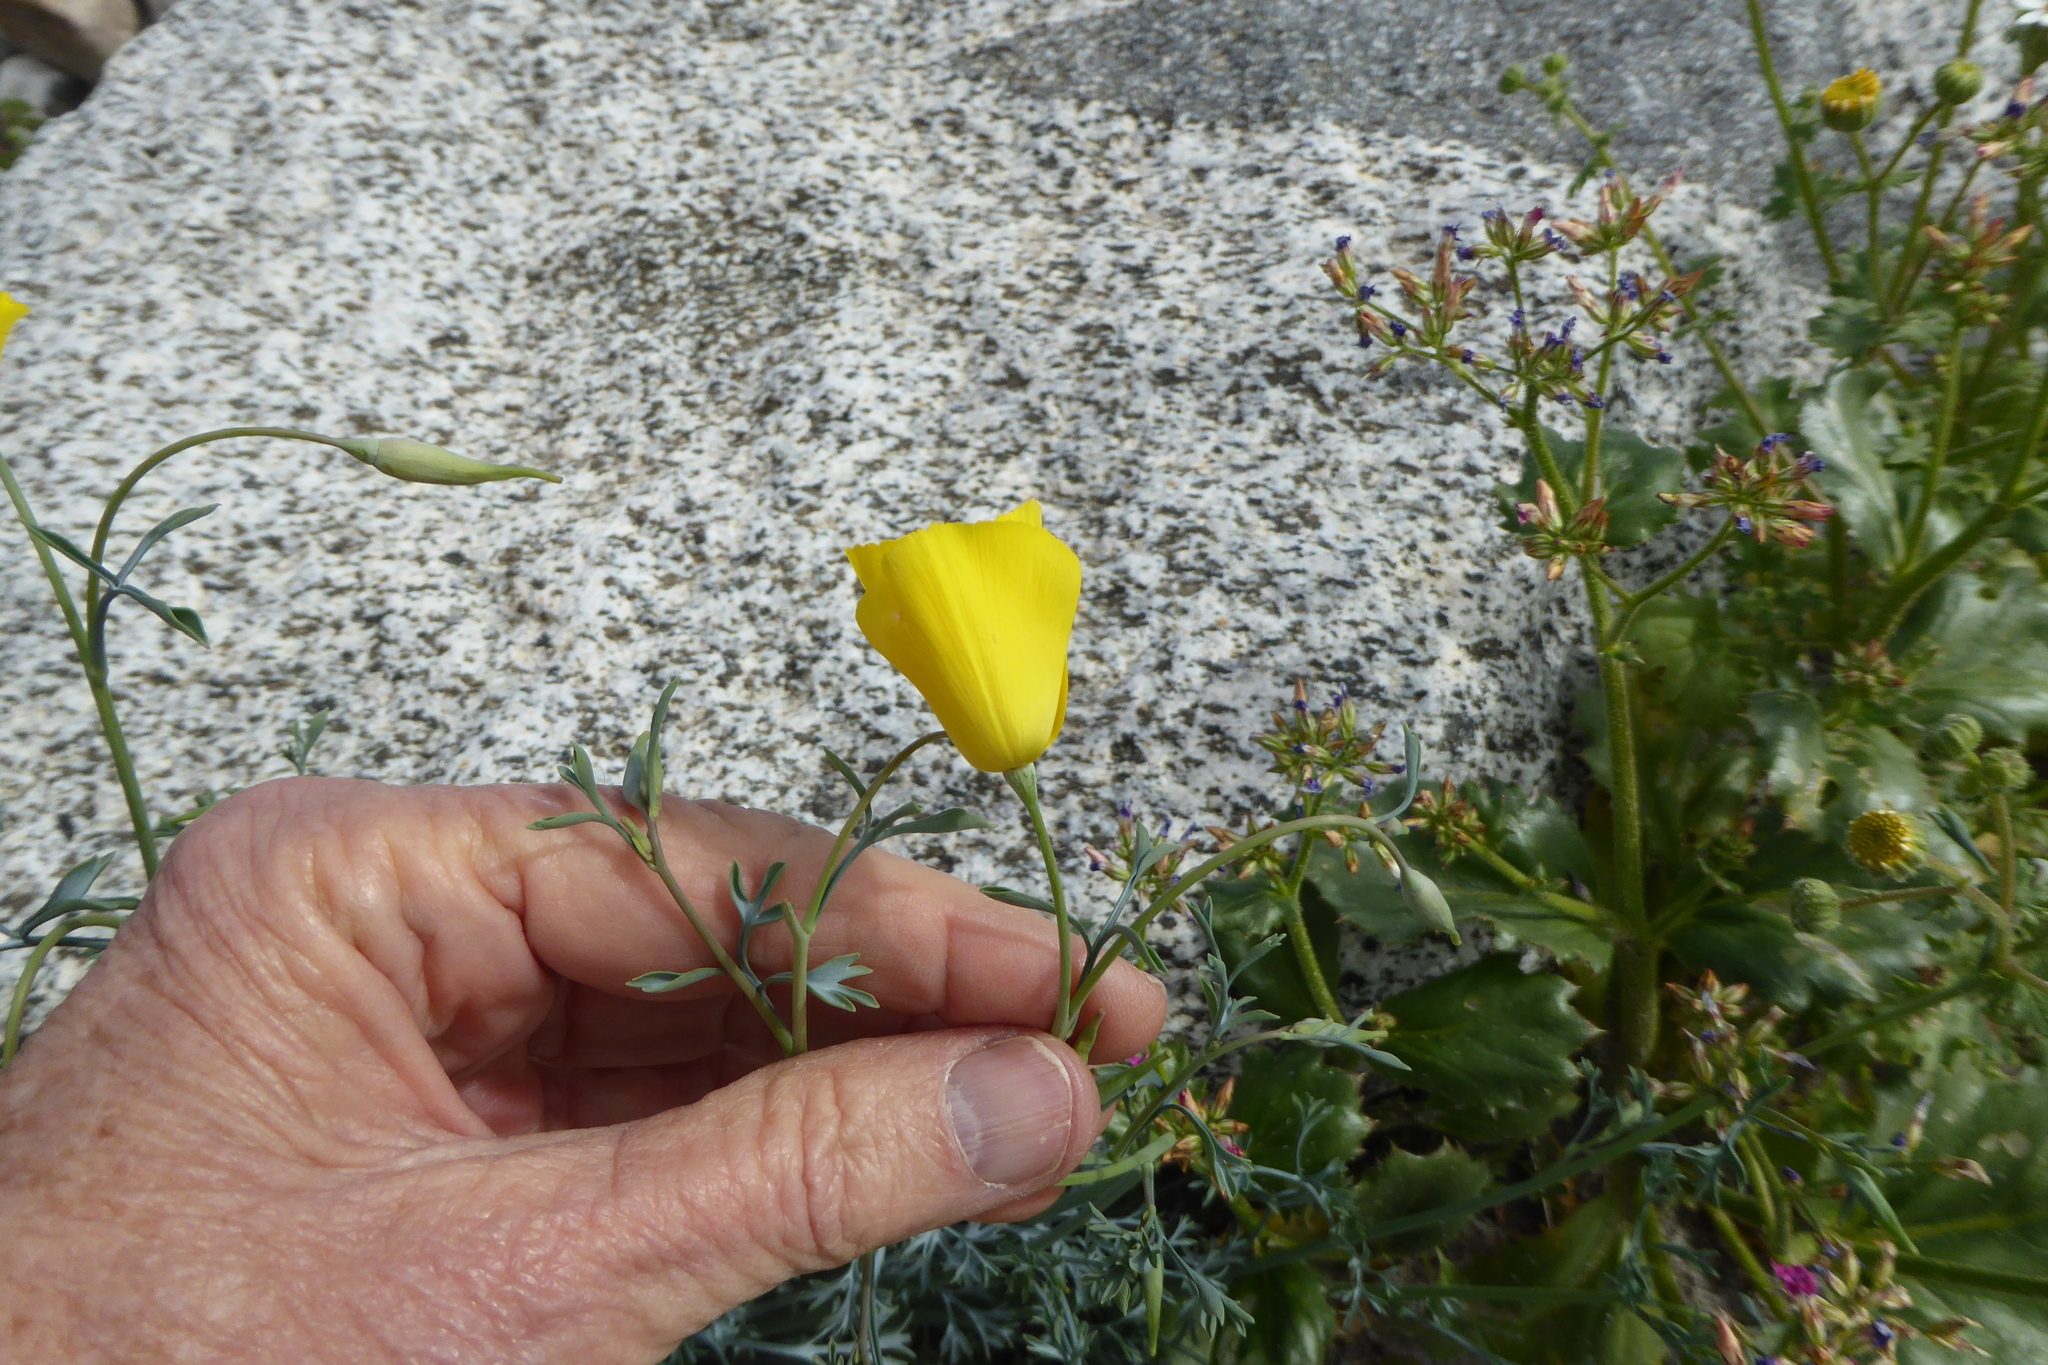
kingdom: Plantae
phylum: Tracheophyta
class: Magnoliopsida
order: Ranunculales
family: Papaveraceae
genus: Eschscholzia
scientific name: Eschscholzia parishii
